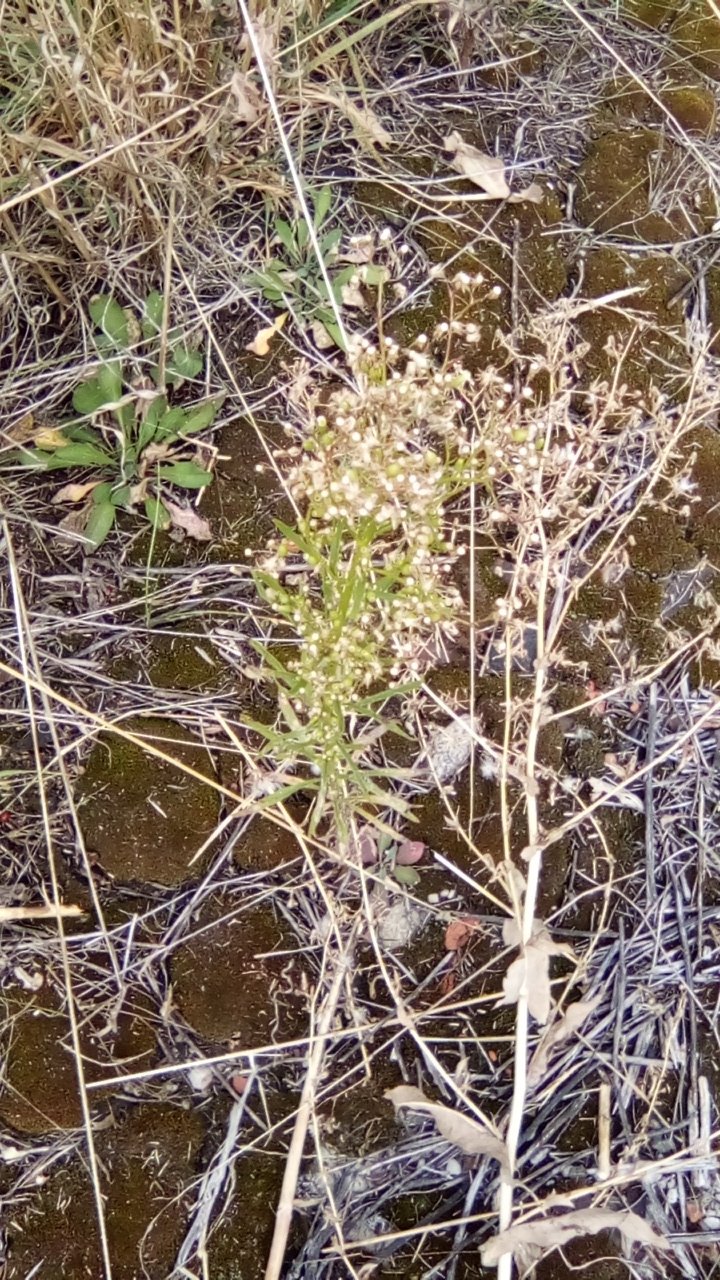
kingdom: Plantae
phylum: Tracheophyta
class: Magnoliopsida
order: Asterales
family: Asteraceae
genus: Erigeron
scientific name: Erigeron canadensis
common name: Canadian fleabane
